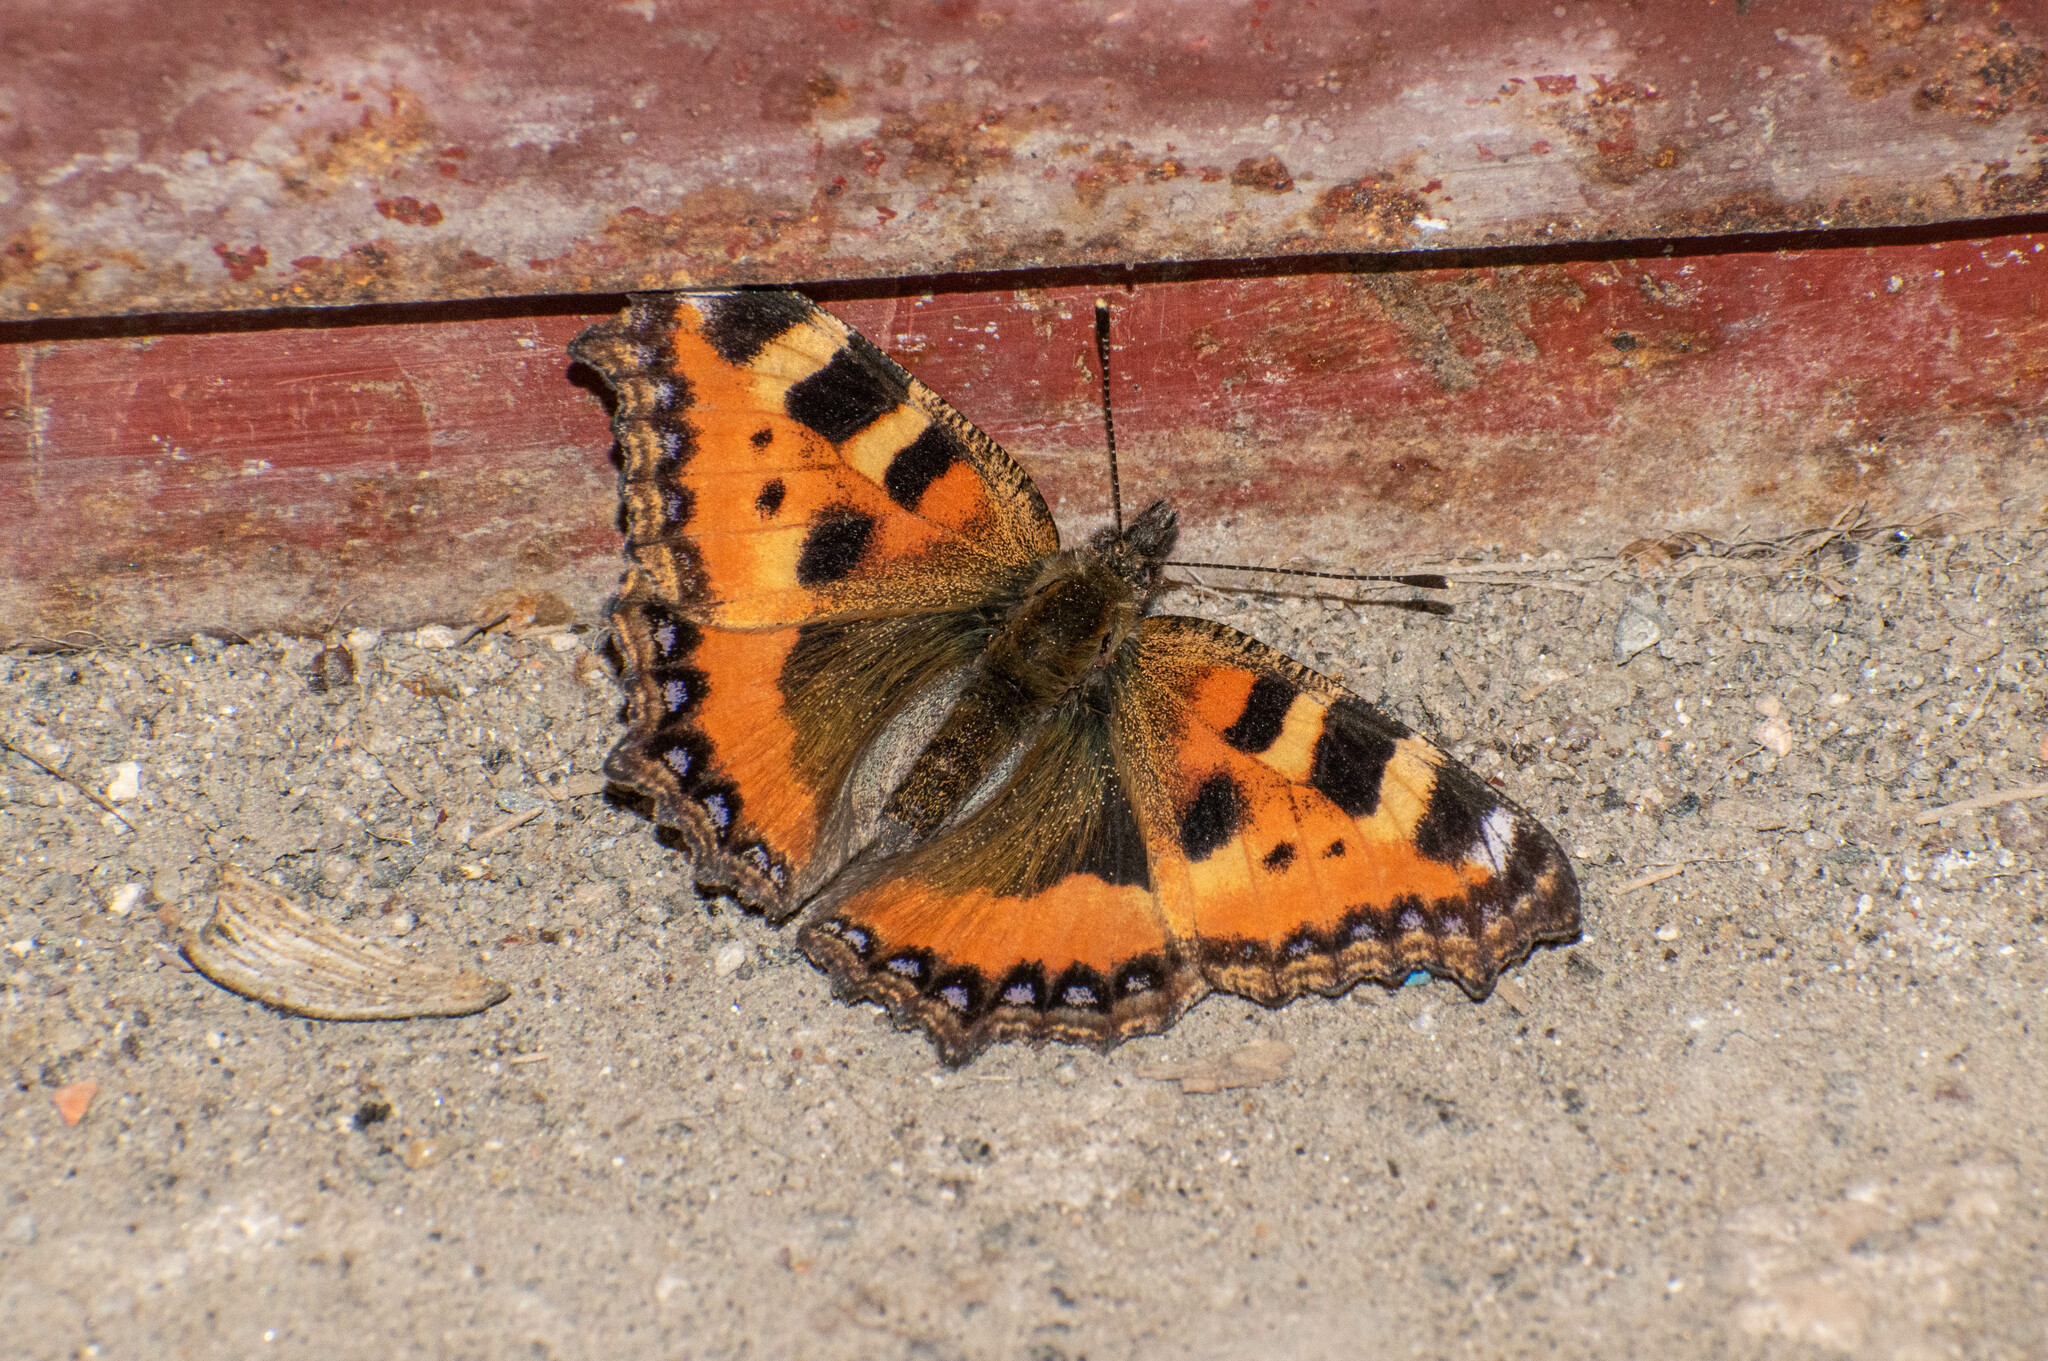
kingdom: Animalia
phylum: Arthropoda
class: Insecta
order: Lepidoptera
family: Nymphalidae
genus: Aglais
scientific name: Aglais urticae
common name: Small tortoiseshell
